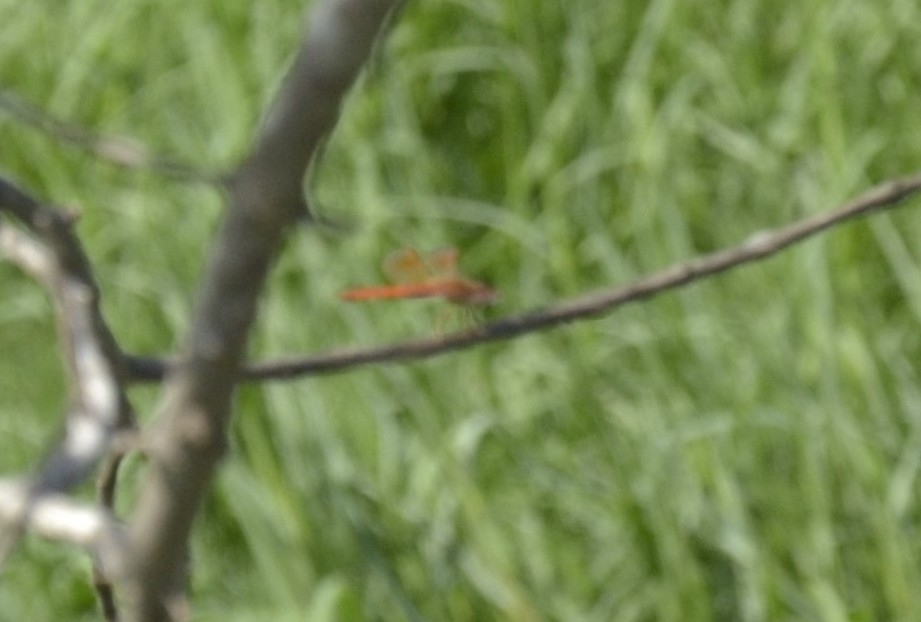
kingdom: Animalia
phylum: Arthropoda
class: Insecta
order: Odonata
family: Libellulidae
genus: Brachythemis
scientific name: Brachythemis contaminata
